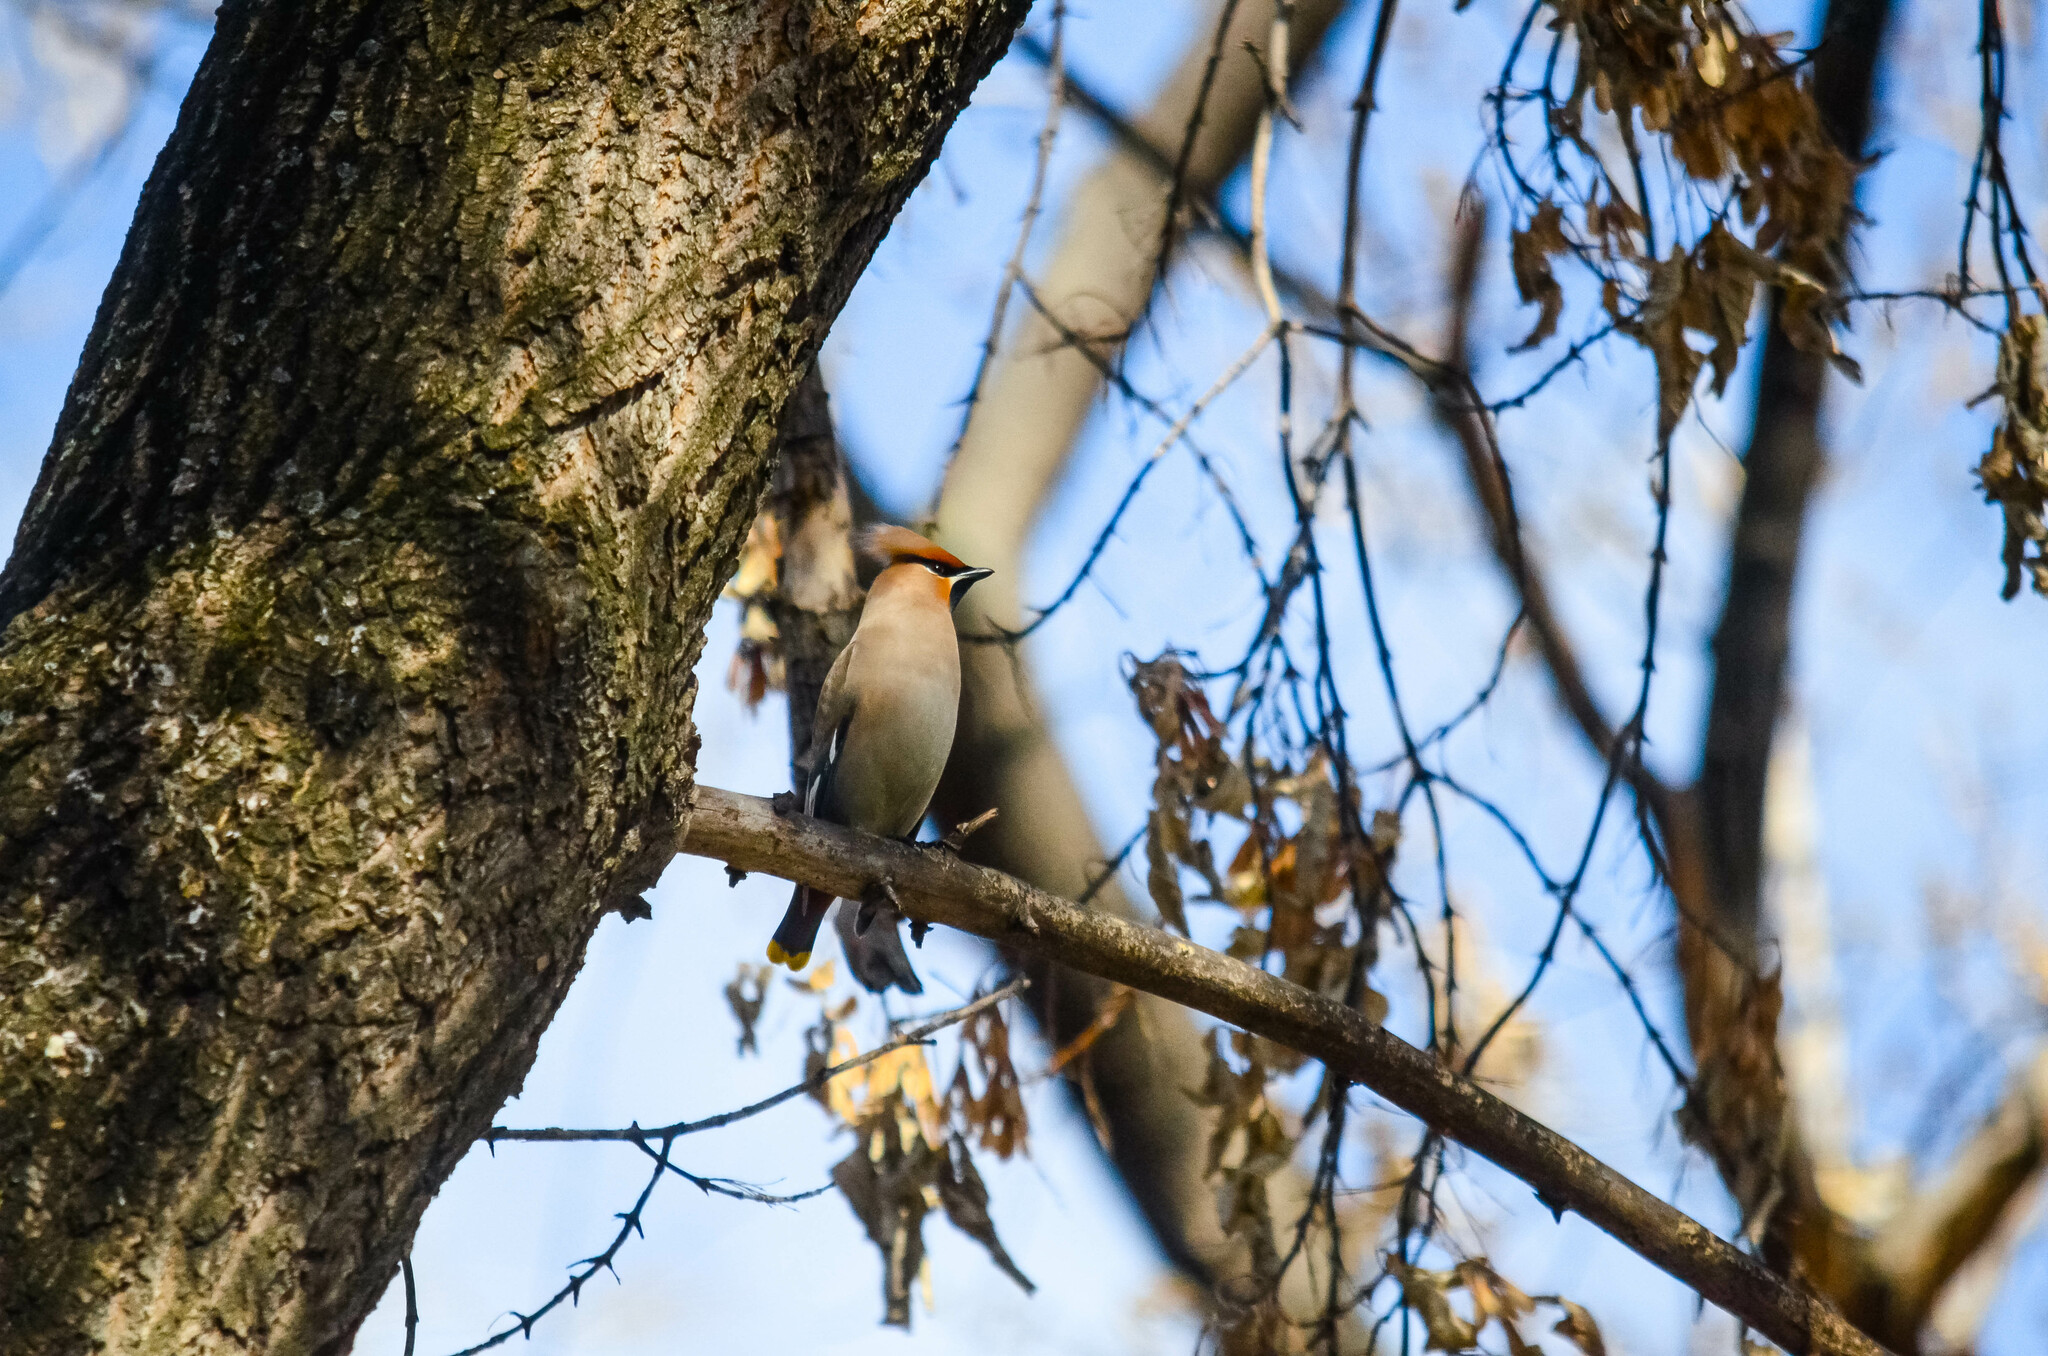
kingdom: Animalia
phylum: Chordata
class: Aves
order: Passeriformes
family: Bombycillidae
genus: Bombycilla
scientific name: Bombycilla garrulus
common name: Bohemian waxwing
